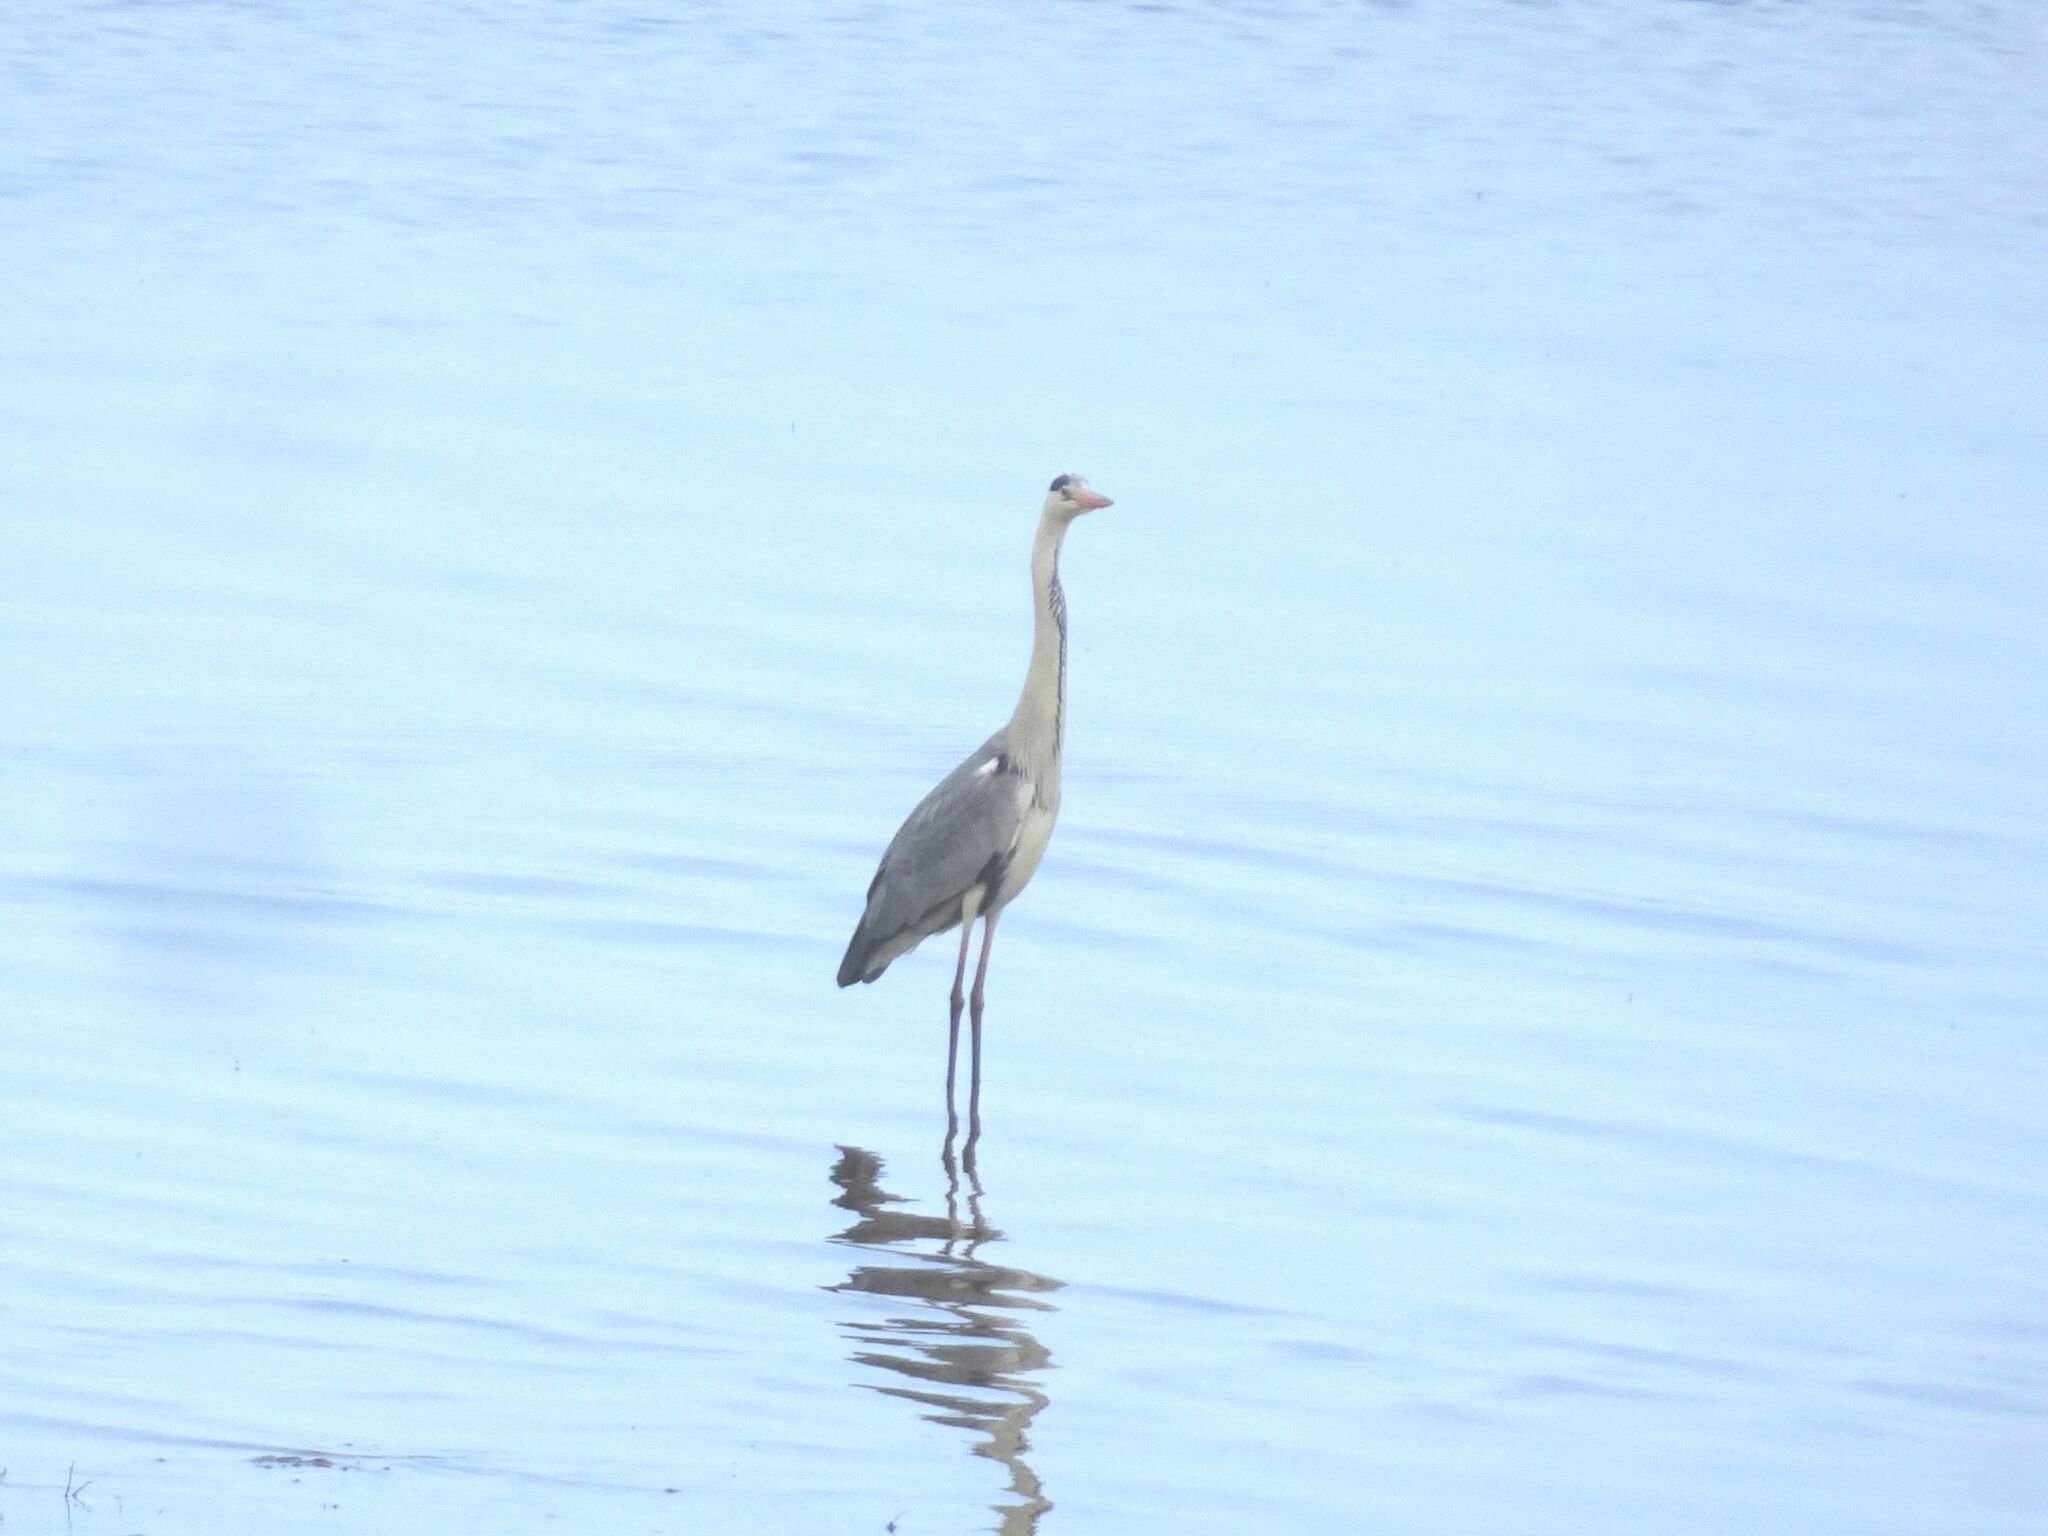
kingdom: Animalia
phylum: Chordata
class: Aves
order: Pelecaniformes
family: Ardeidae
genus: Ardea
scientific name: Ardea cinerea
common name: Grey heron
